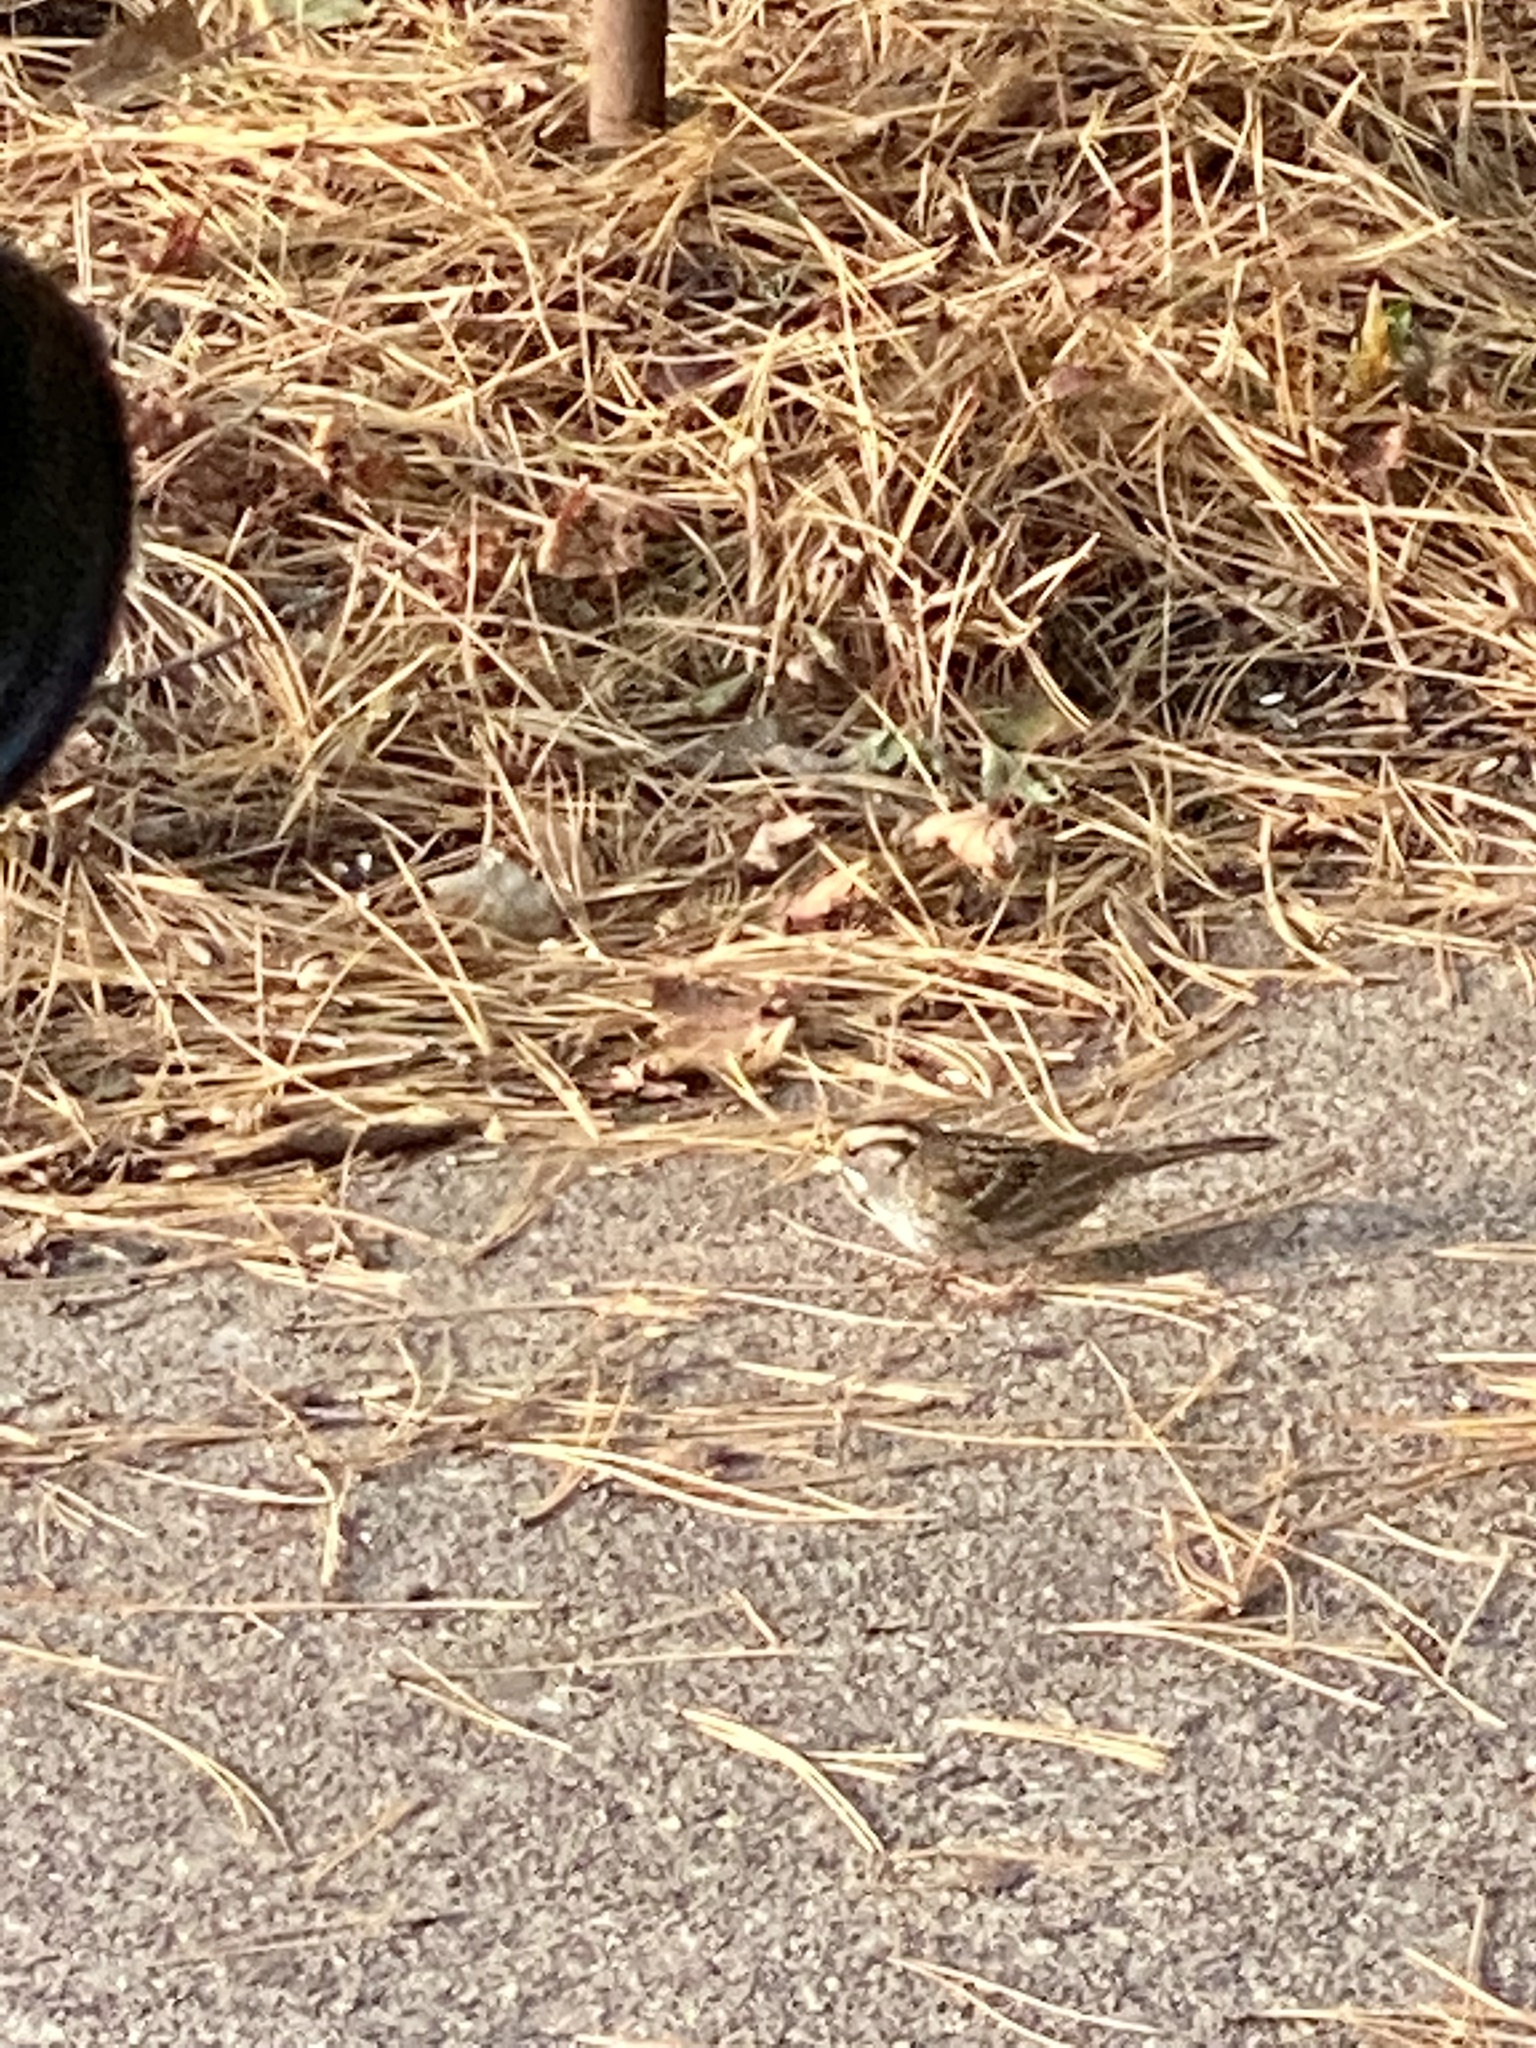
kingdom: Animalia
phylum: Chordata
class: Aves
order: Passeriformes
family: Passerellidae
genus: Zonotrichia
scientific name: Zonotrichia albicollis
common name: White-throated sparrow
